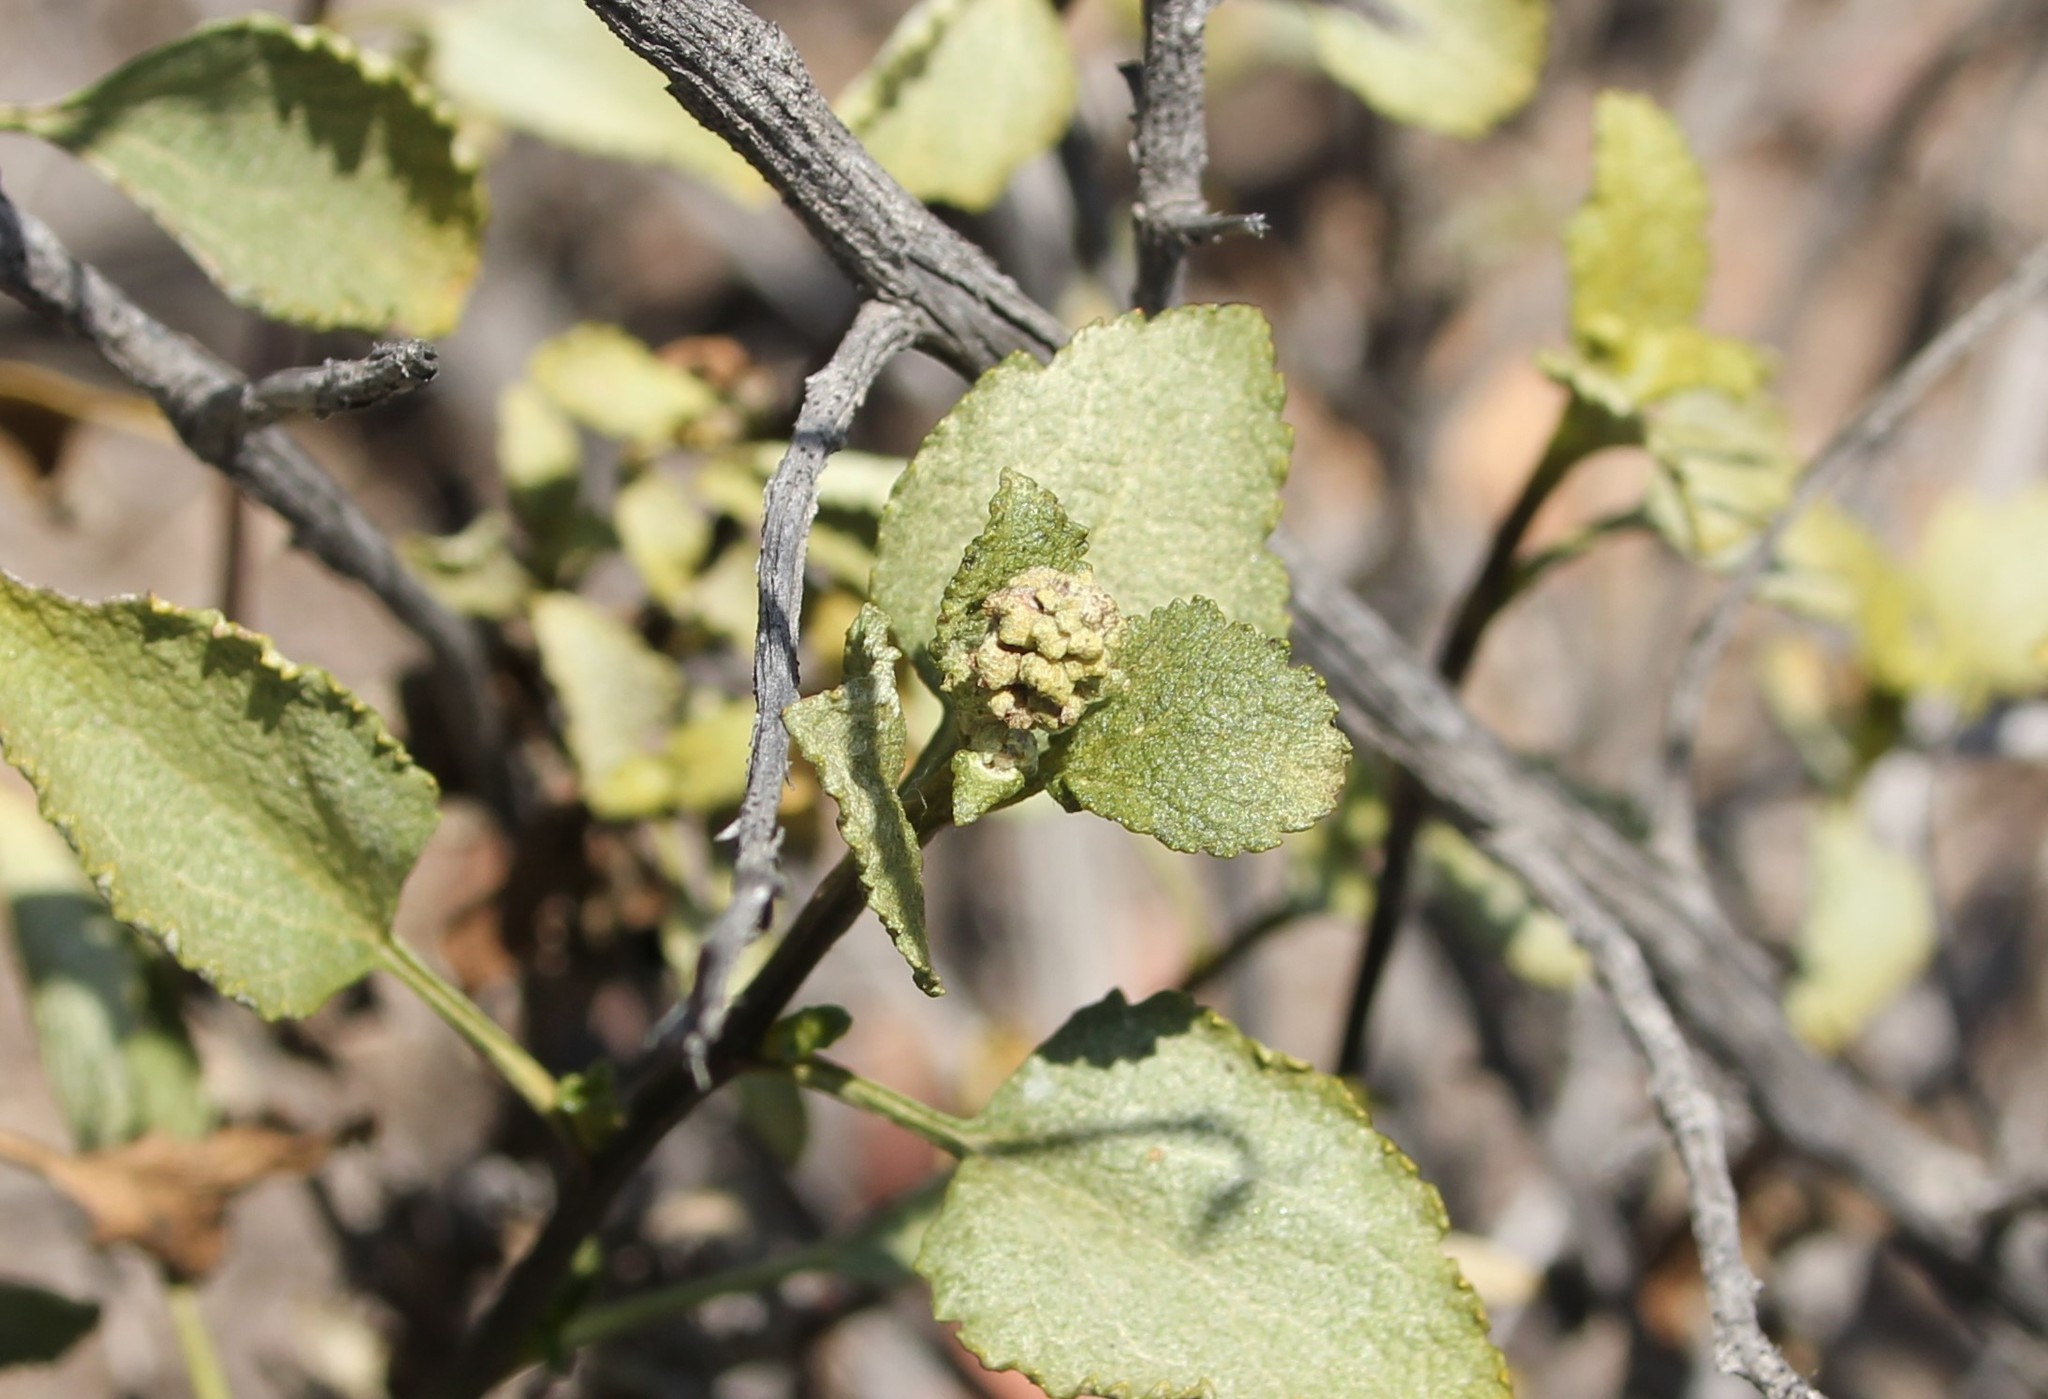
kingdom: Plantae
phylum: Tracheophyta
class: Magnoliopsida
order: Asterales
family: Asteraceae
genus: Ambrosia
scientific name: Ambrosia chenopodiifolia
